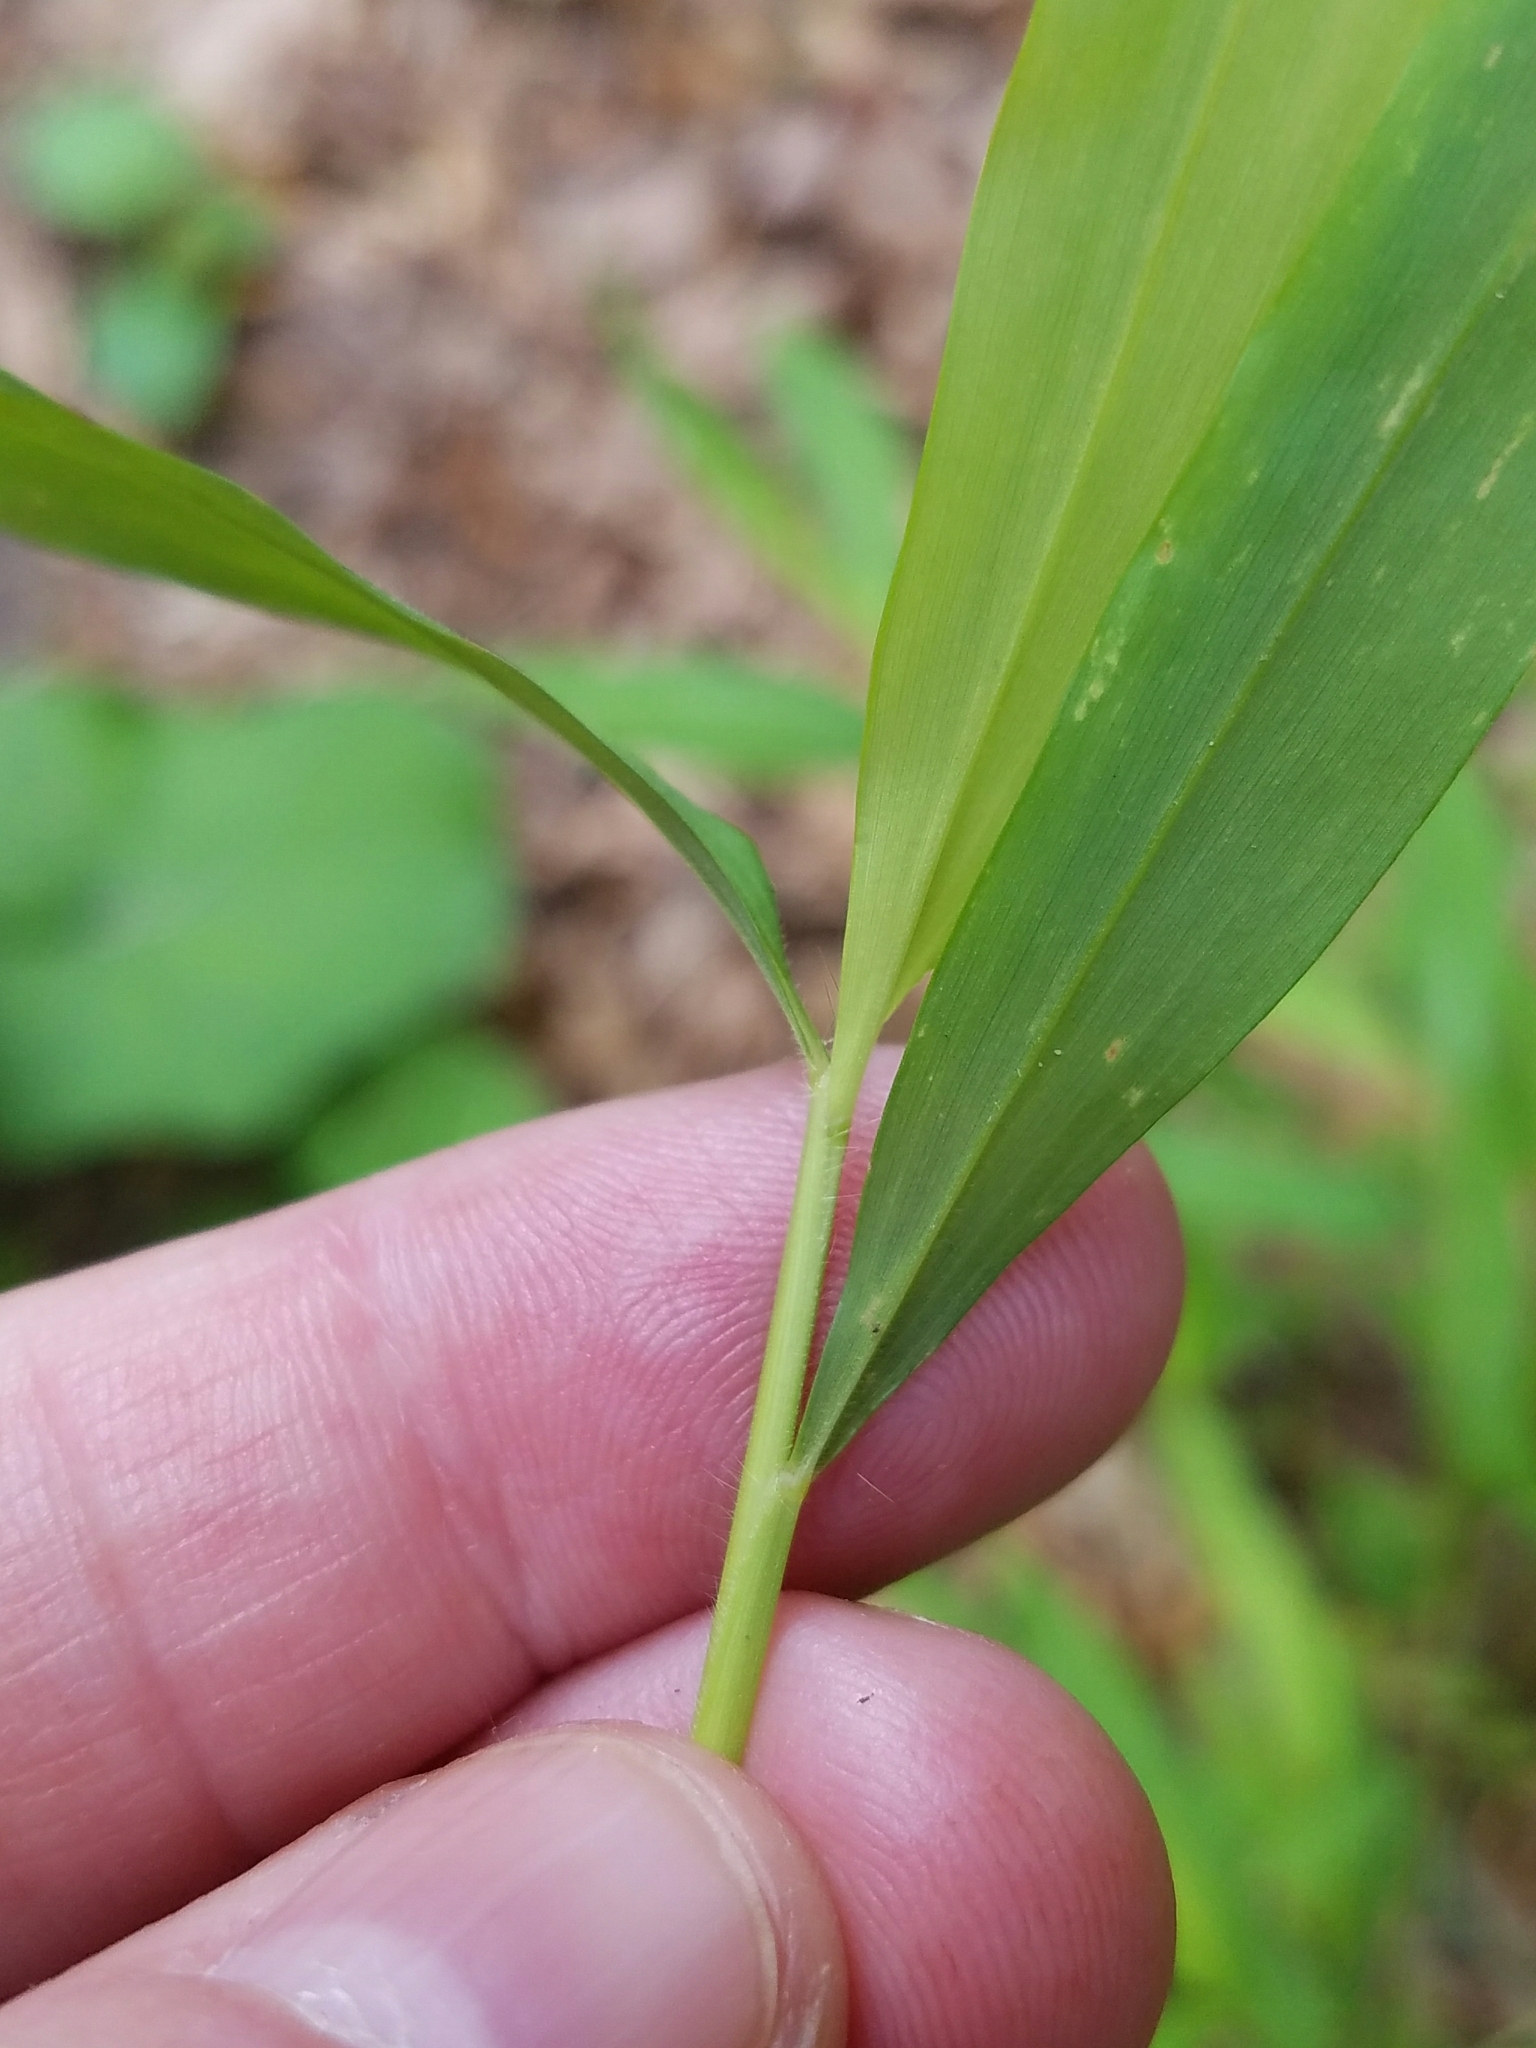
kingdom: Plantae
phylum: Tracheophyta
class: Liliopsida
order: Poales
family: Poaceae
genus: Microstegium
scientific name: Microstegium vimineum
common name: Japanese stiltgrass
